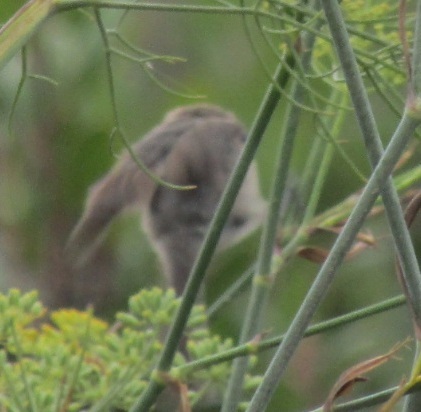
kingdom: Animalia
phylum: Chordata
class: Aves
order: Passeriformes
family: Aegithalidae
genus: Psaltriparus
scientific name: Psaltriparus minimus
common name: American bushtit
